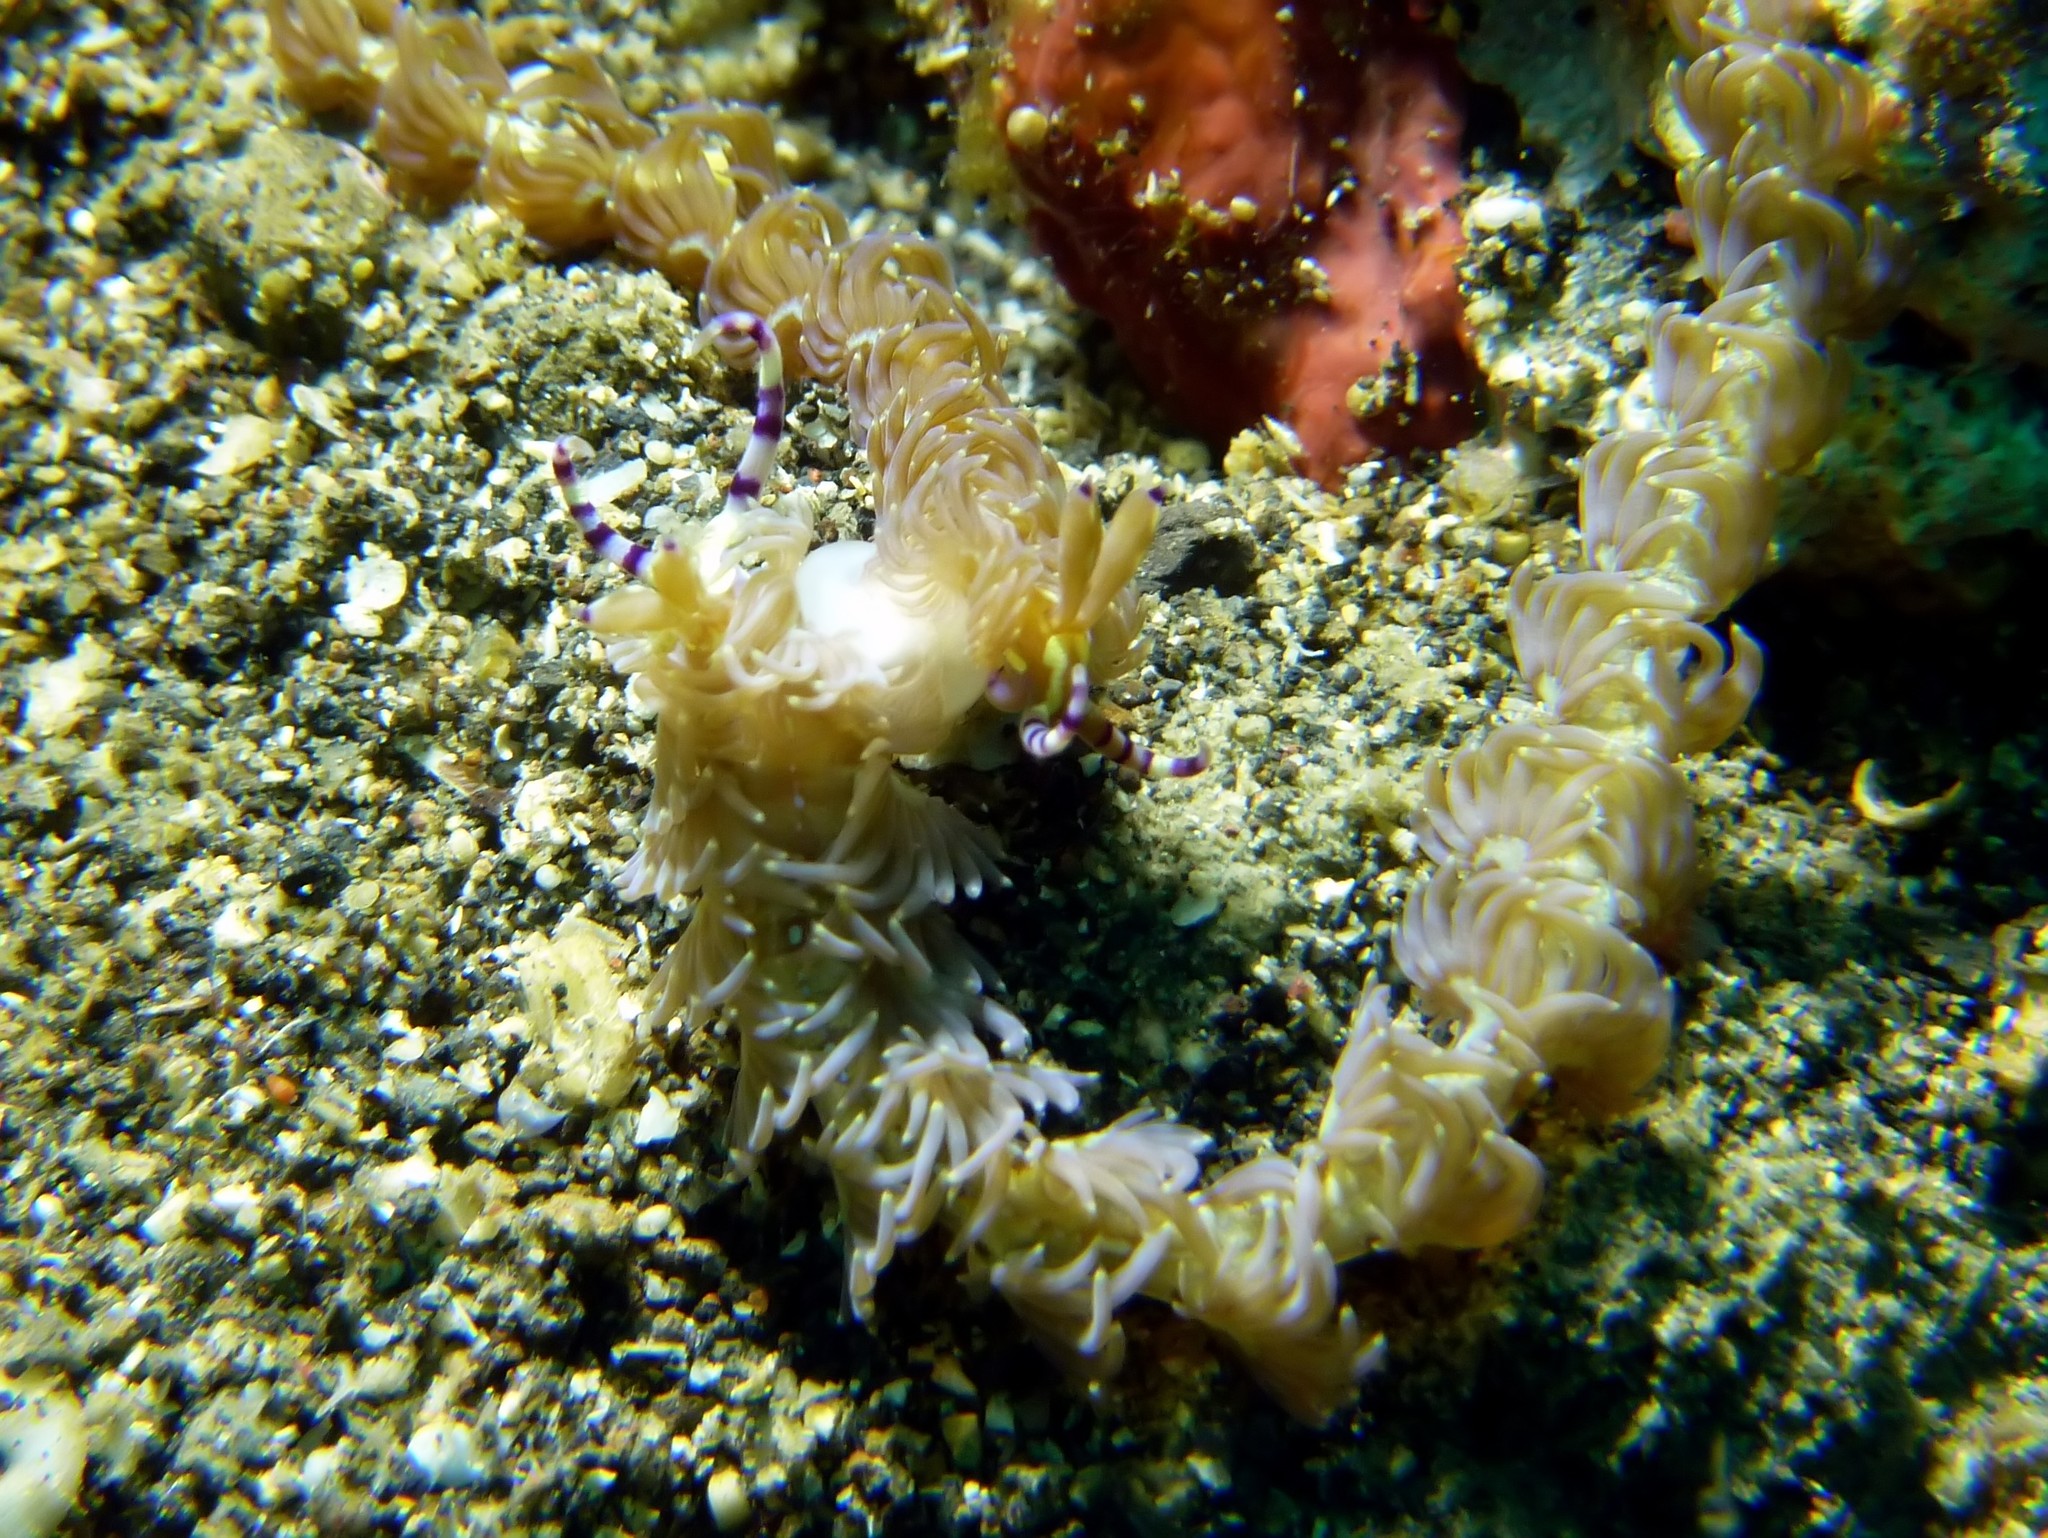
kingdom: Animalia
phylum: Mollusca
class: Gastropoda
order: Nudibranchia
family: Facelinidae
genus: Pteraeolidia
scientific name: Pteraeolidia semperi
